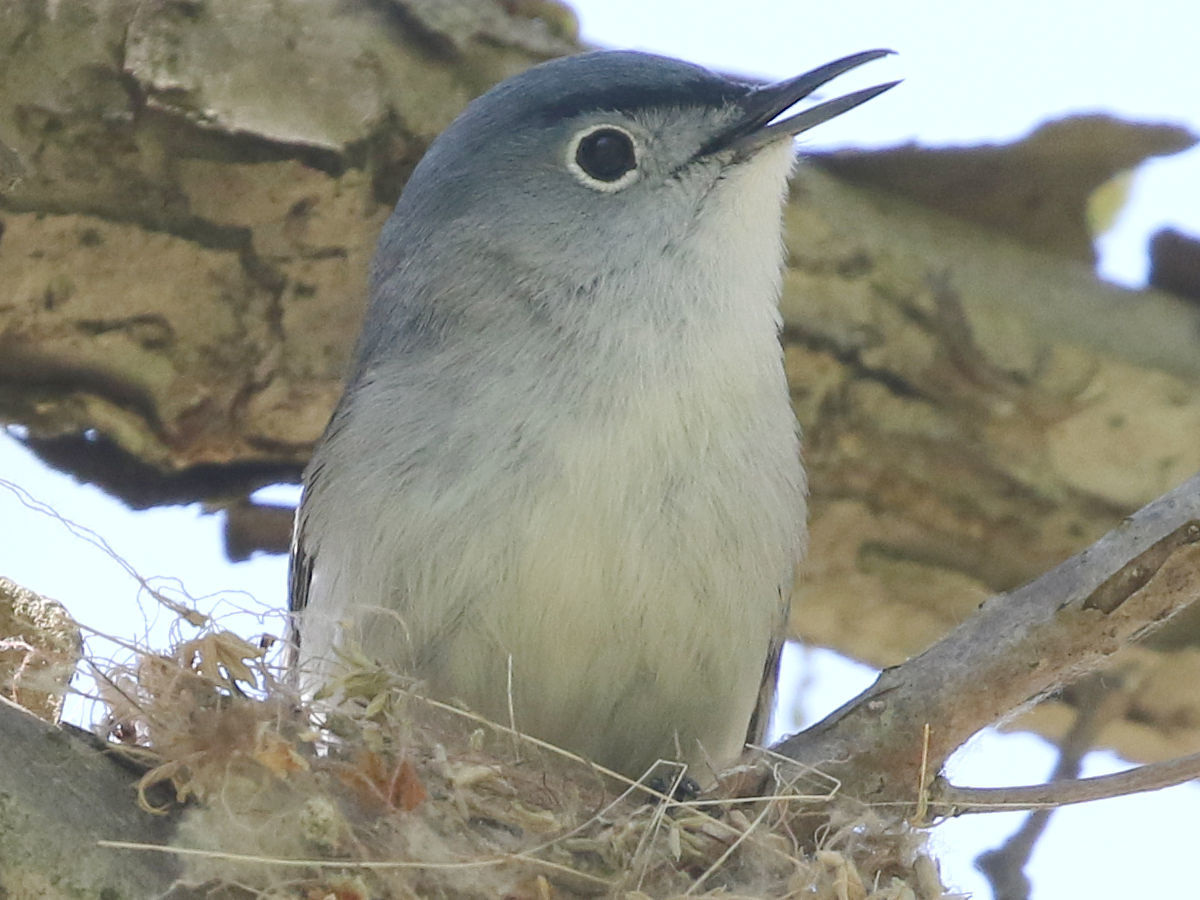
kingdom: Animalia
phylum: Chordata
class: Aves
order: Passeriformes
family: Polioptilidae
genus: Polioptila
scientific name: Polioptila caerulea
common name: Blue-gray gnatcatcher
